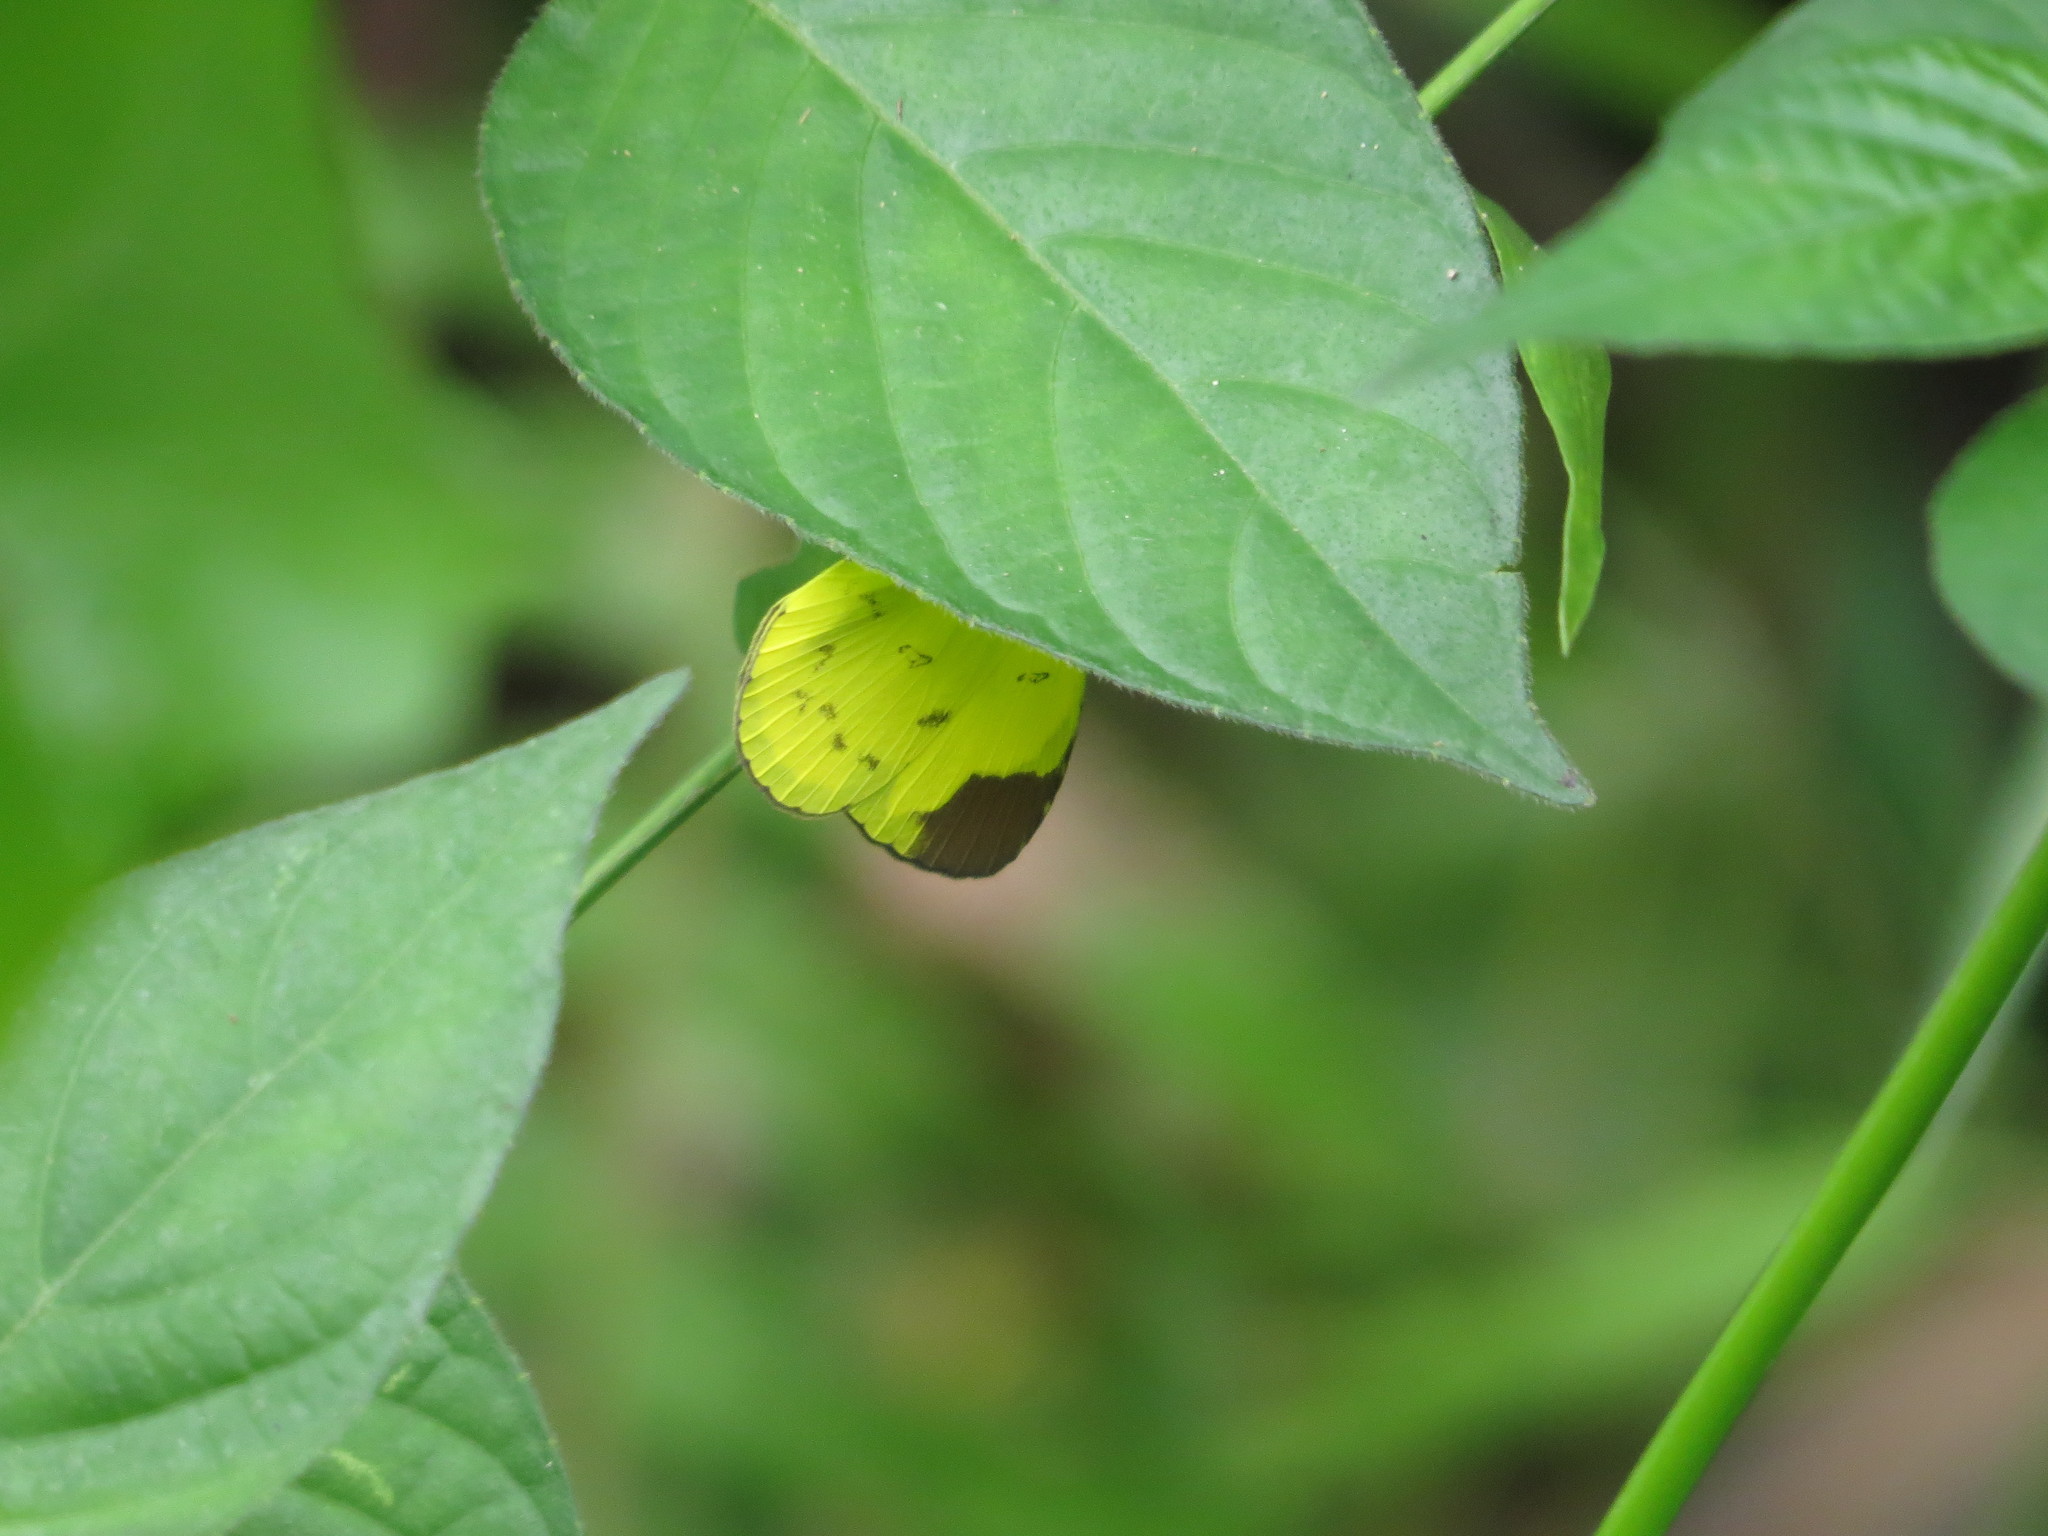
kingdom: Animalia
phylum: Arthropoda
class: Insecta
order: Lepidoptera
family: Pieridae
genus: Eurema
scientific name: Eurema sari
